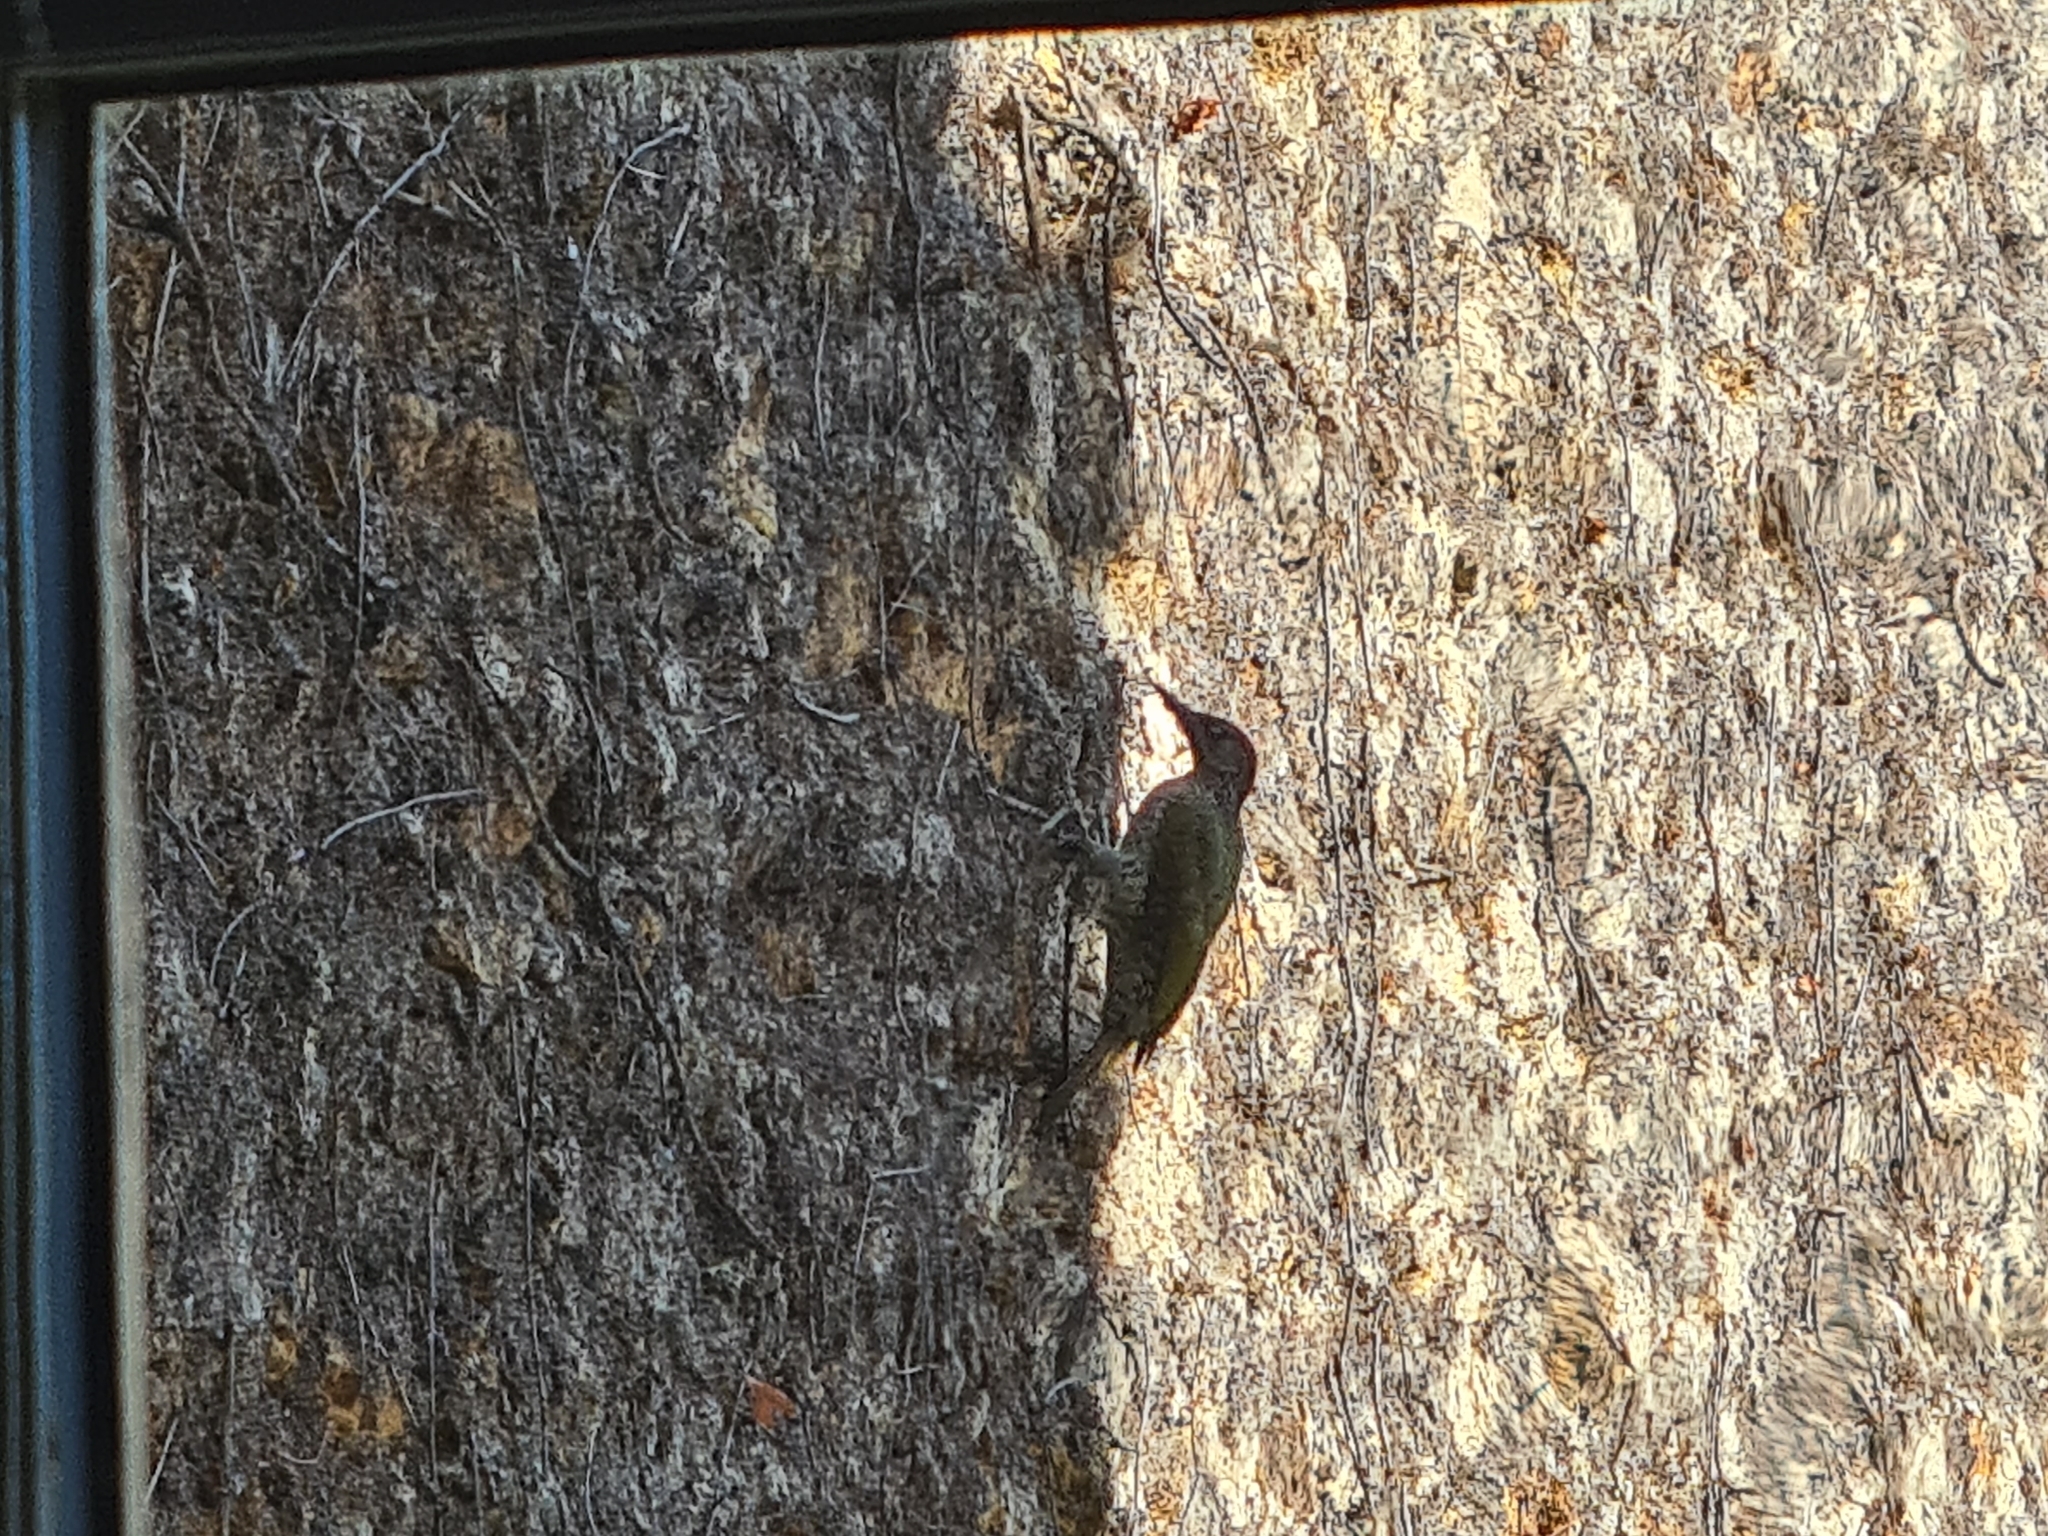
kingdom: Animalia
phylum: Chordata
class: Aves
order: Piciformes
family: Picidae
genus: Picus
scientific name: Picus viridis
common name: European green woodpecker
